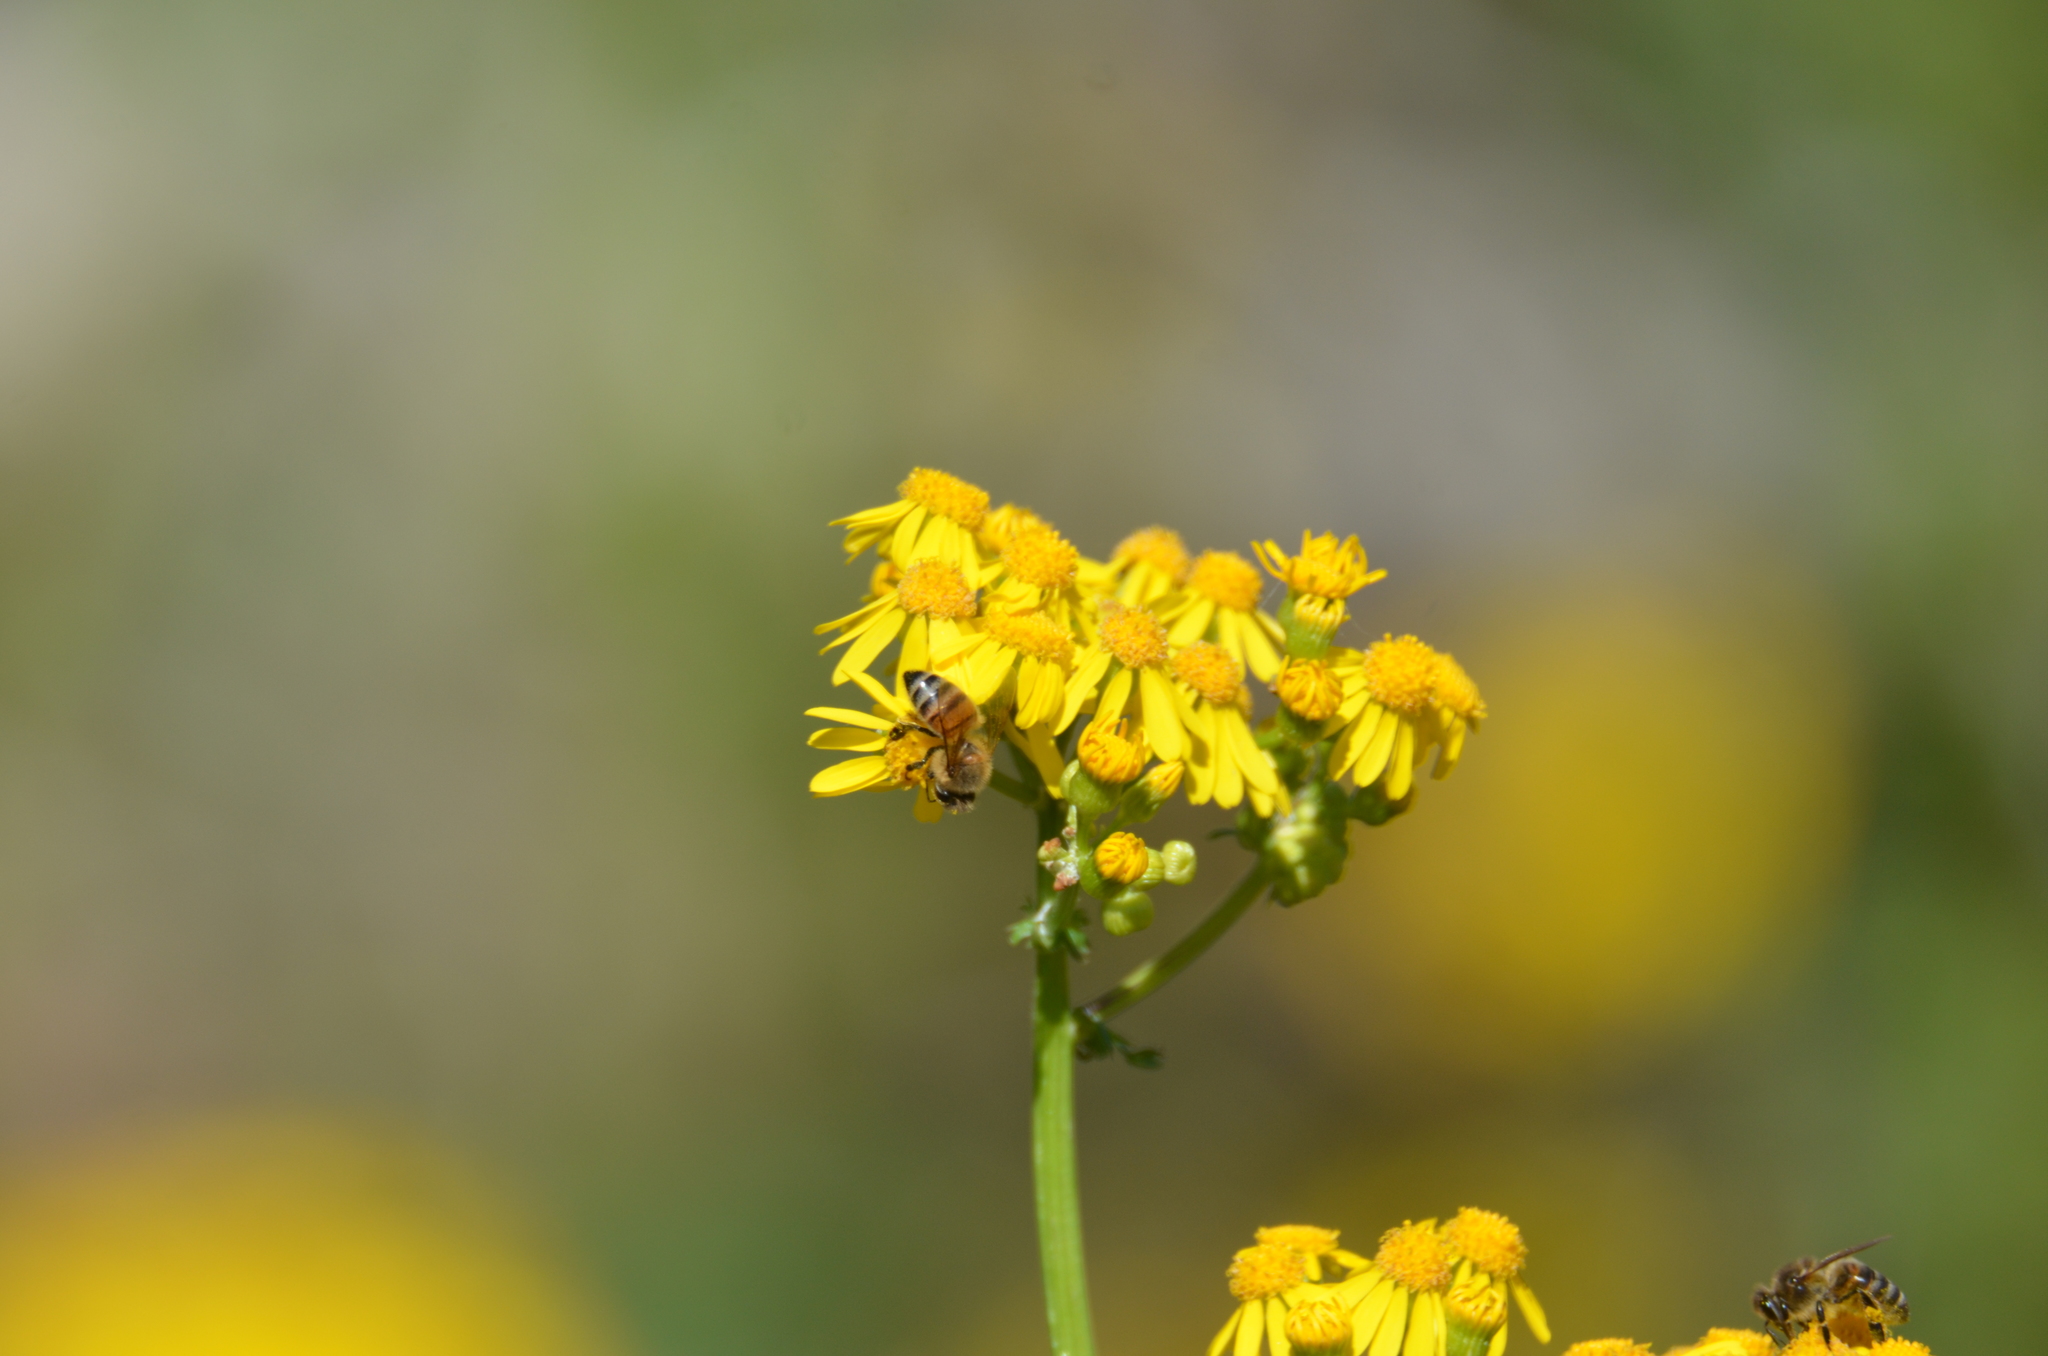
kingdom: Animalia
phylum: Arthropoda
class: Insecta
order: Hymenoptera
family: Apidae
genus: Apis
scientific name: Apis mellifera
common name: Honey bee
